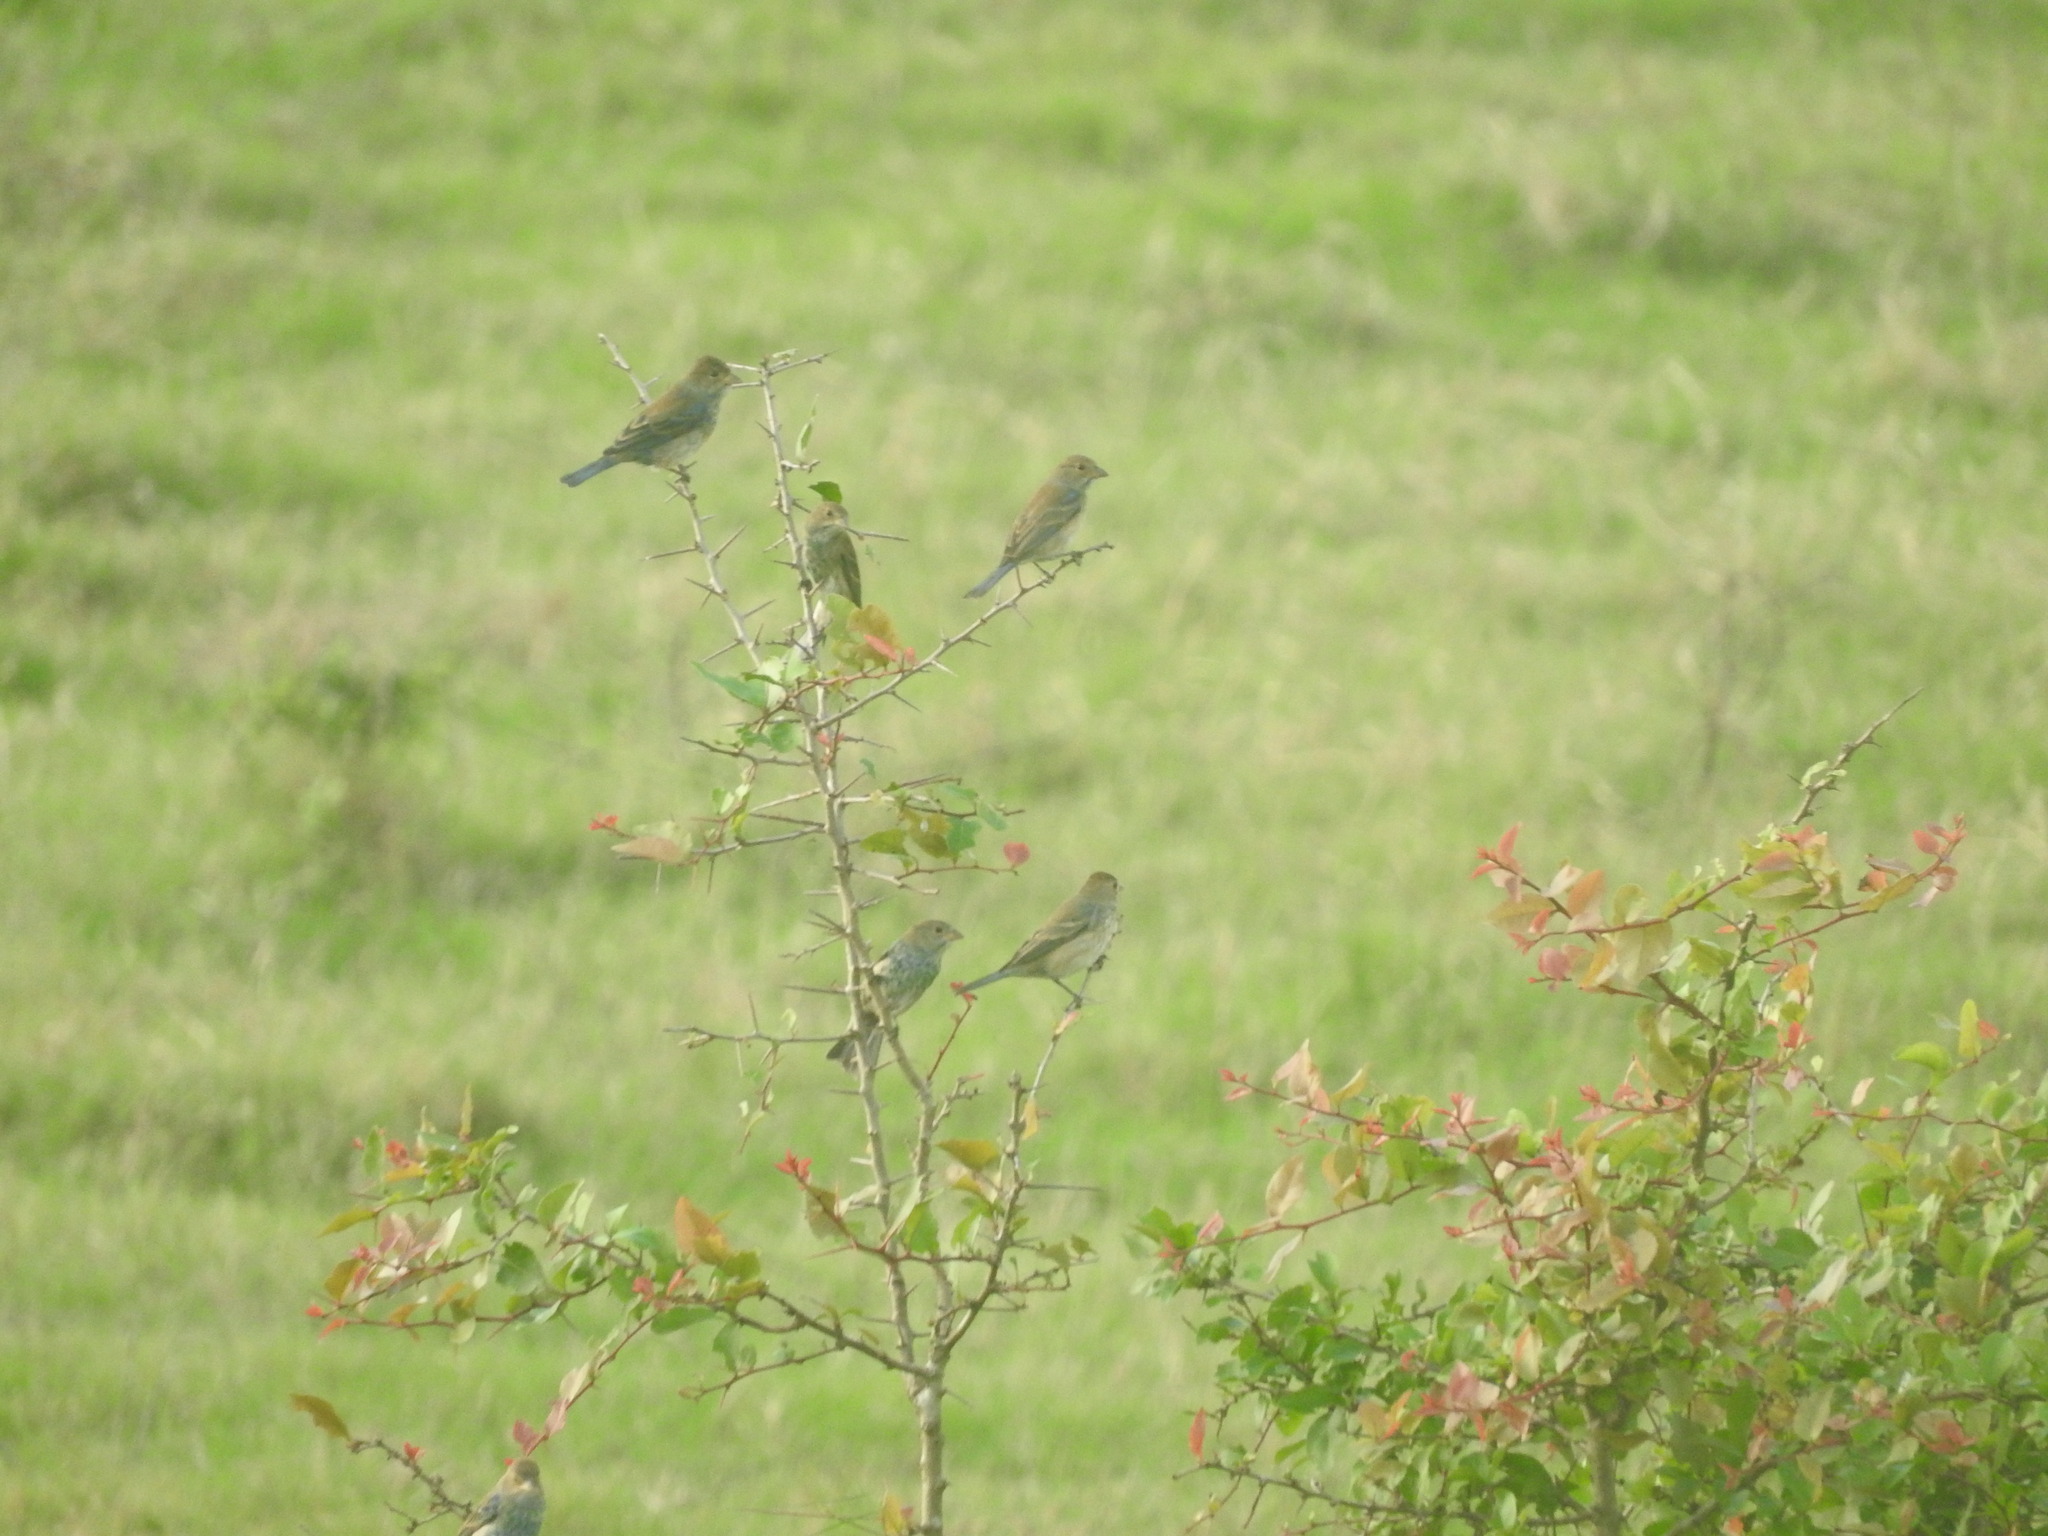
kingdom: Animalia
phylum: Chordata
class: Aves
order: Passeriformes
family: Cardinalidae
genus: Passerina
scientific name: Passerina cyanea
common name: Indigo bunting
